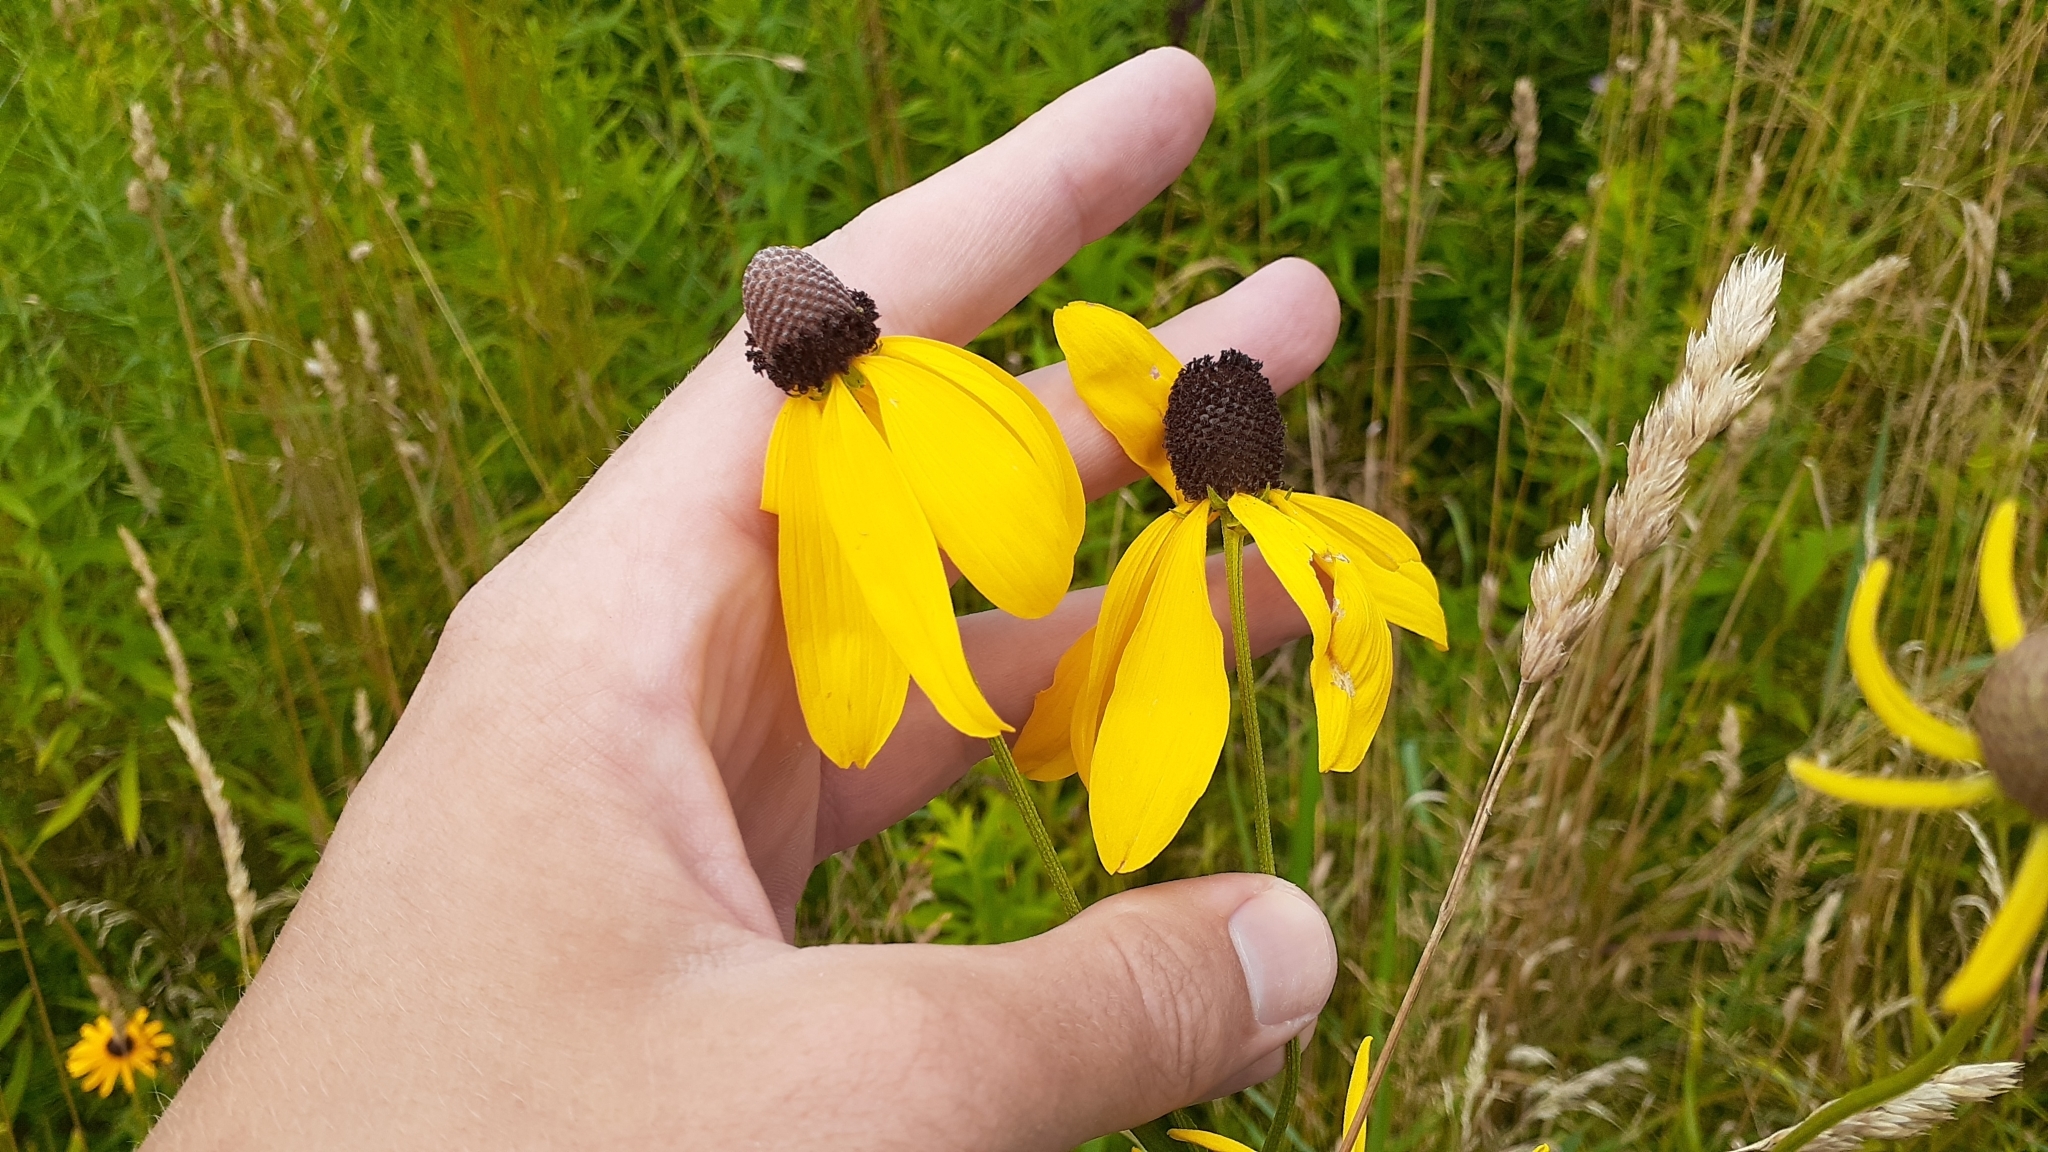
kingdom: Plantae
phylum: Tracheophyta
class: Magnoliopsida
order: Asterales
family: Asteraceae
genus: Ratibida
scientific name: Ratibida pinnata
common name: Drooping prairie-coneflower
